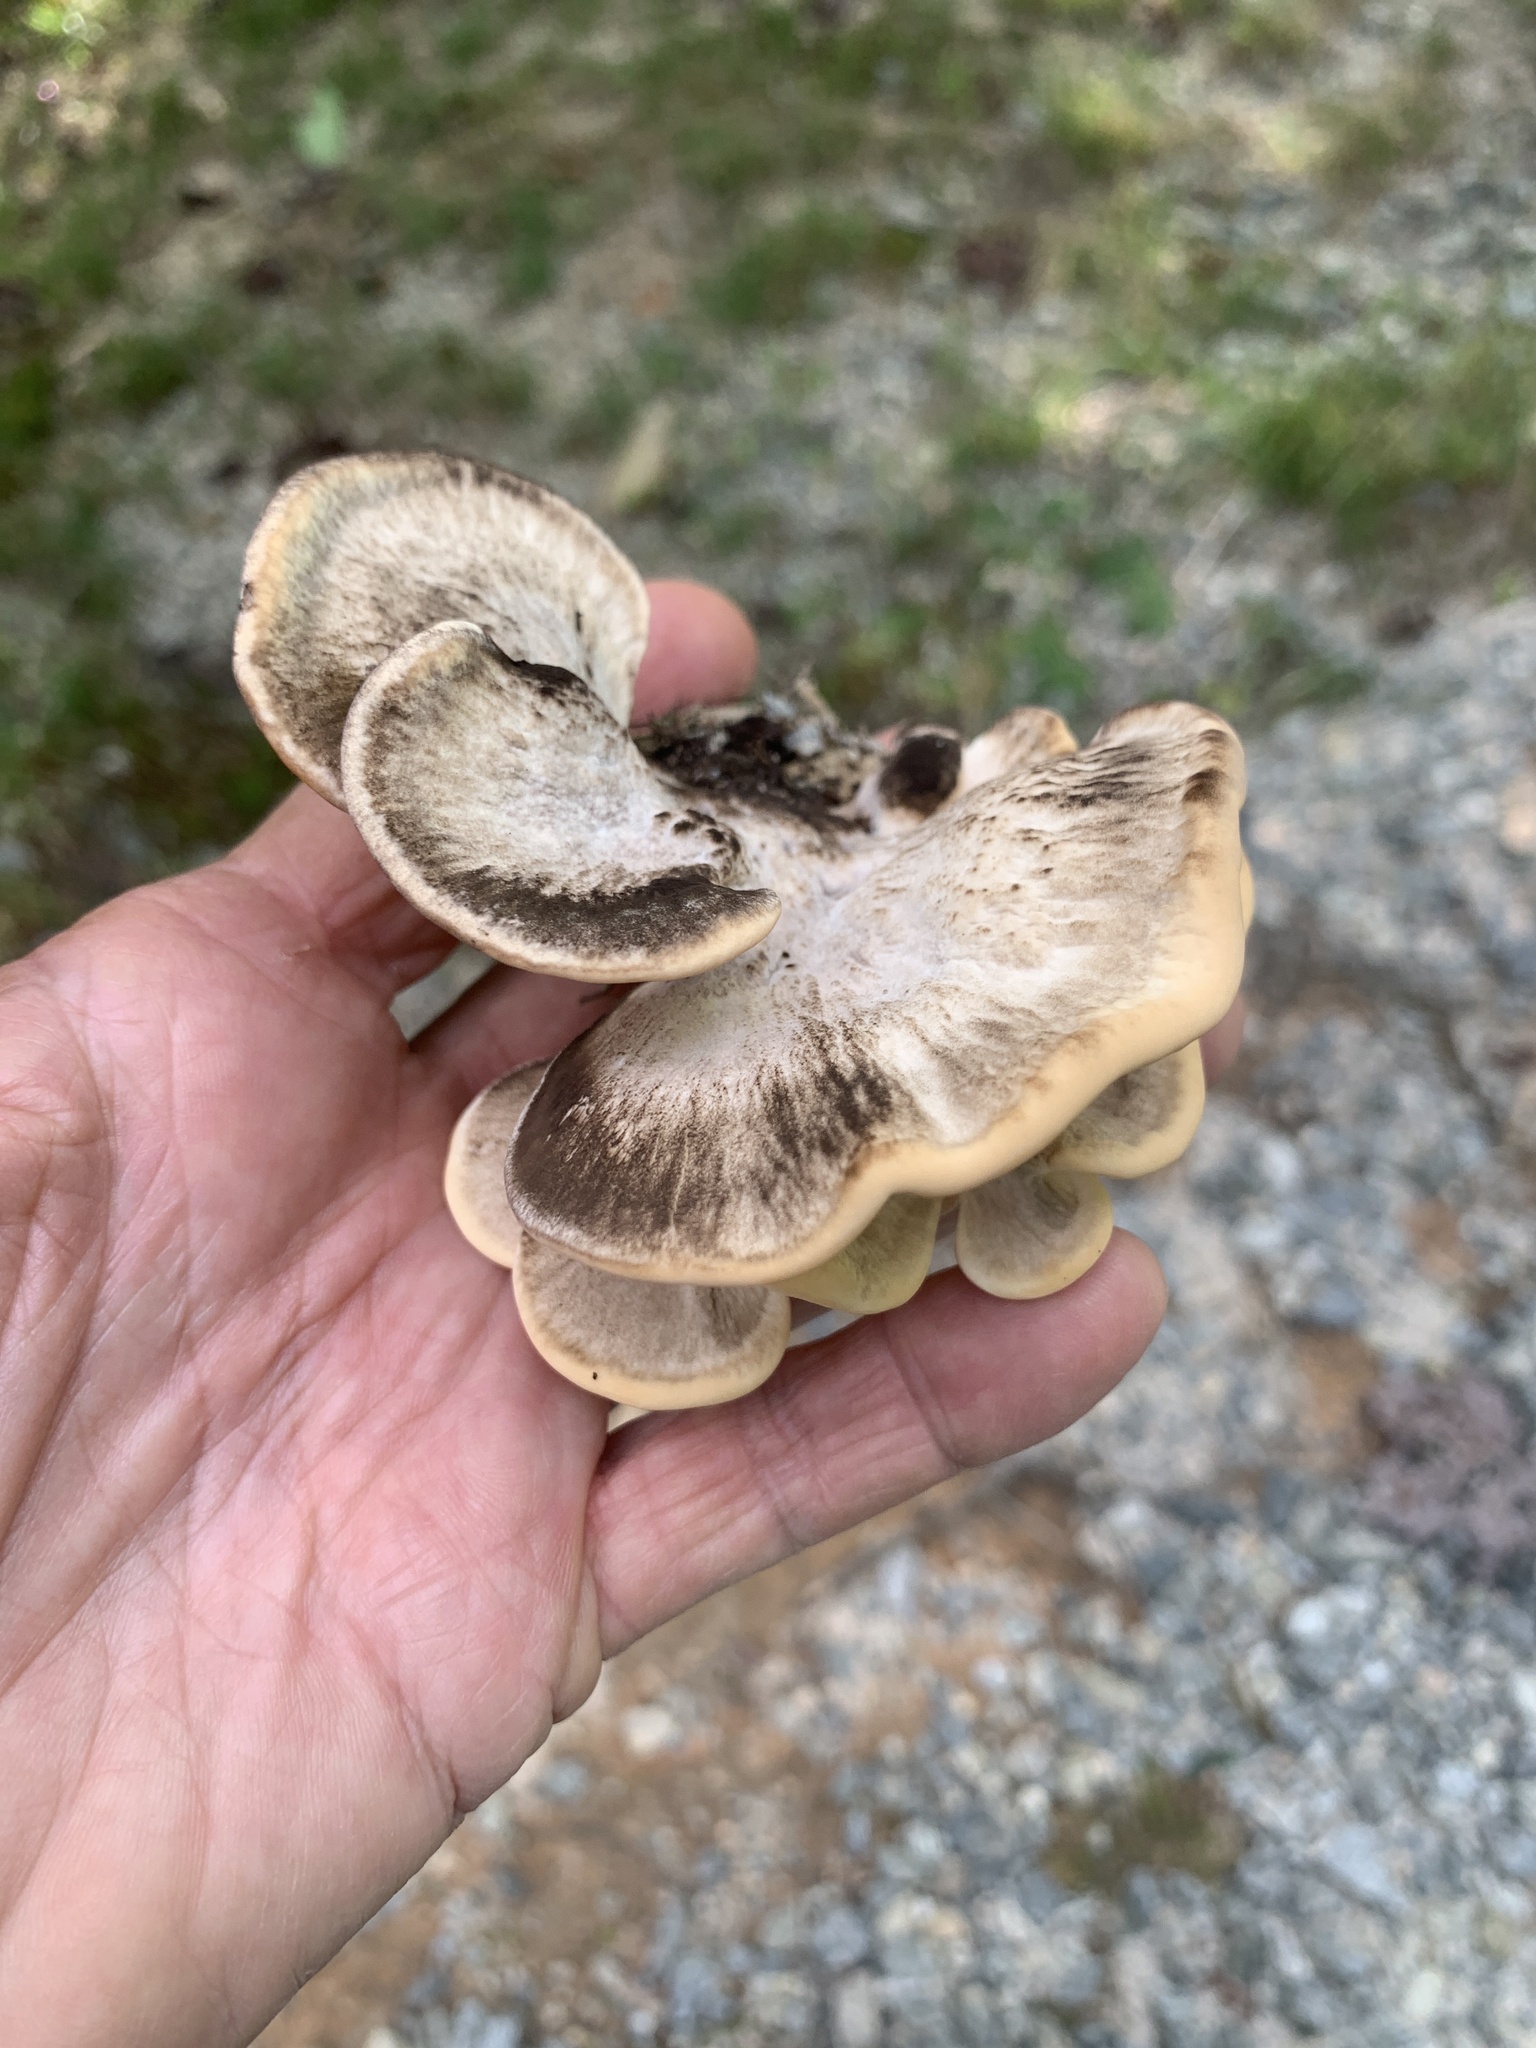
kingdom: Fungi
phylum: Basidiomycota
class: Agaricomycetes
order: Polyporales
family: Meripilaceae
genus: Meripilus
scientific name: Meripilus sumstinei
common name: Black-staining polypore
